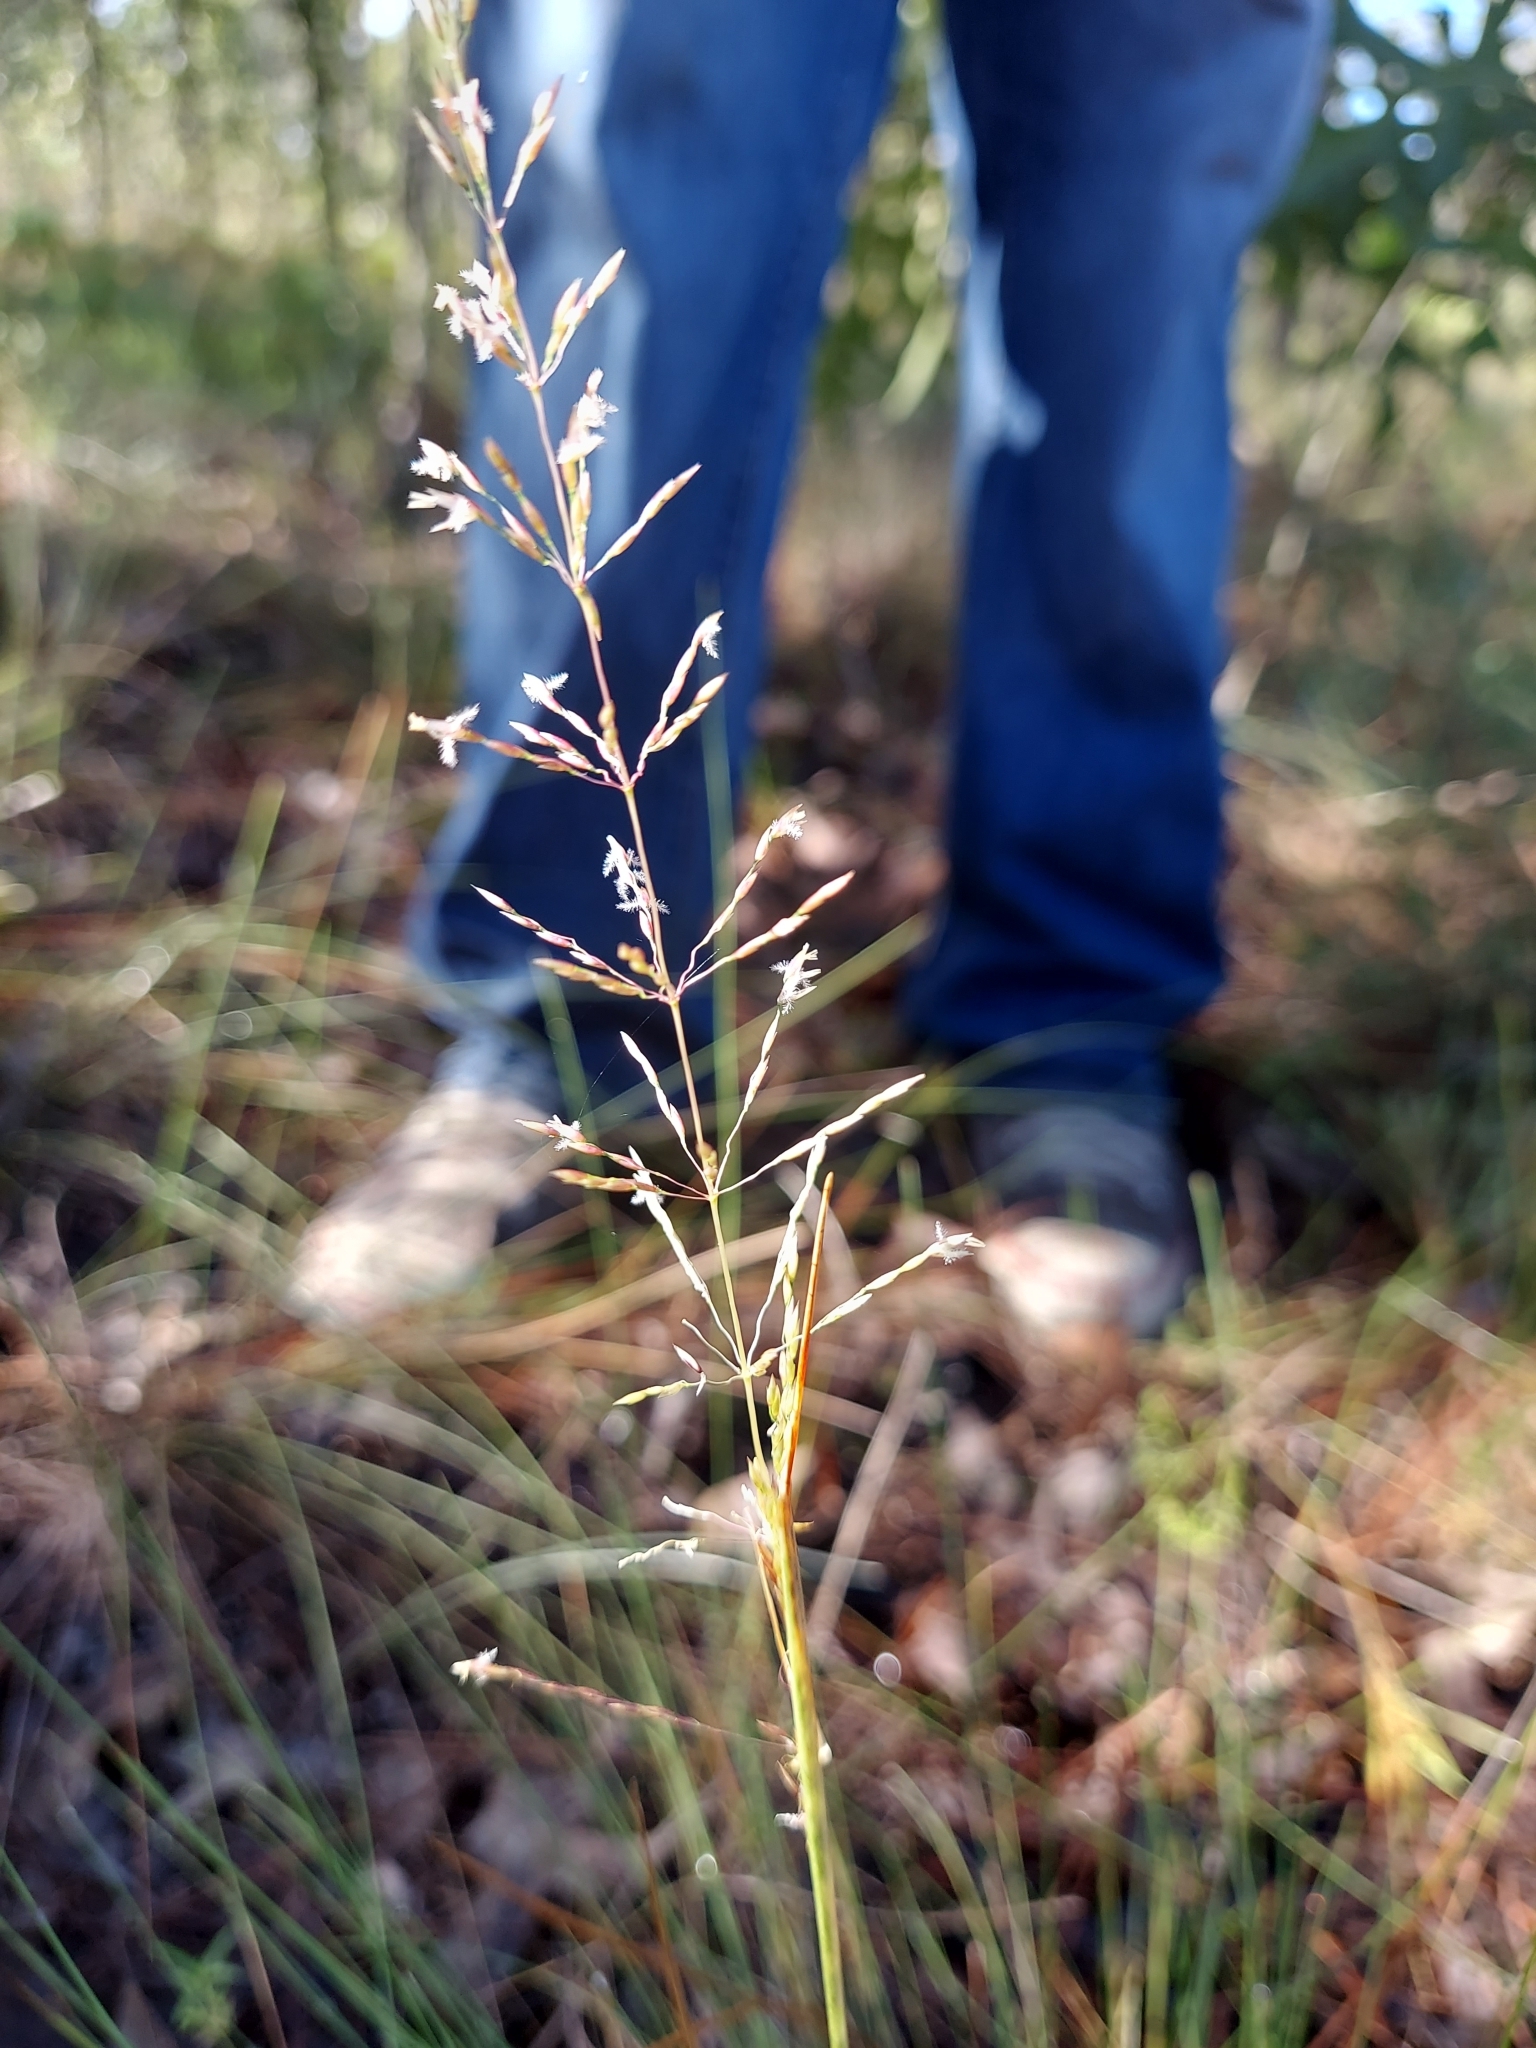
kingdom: Plantae
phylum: Tracheophyta
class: Liliopsida
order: Poales
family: Poaceae
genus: Sporobolus
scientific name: Sporobolus junceus
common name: Lizard grass
